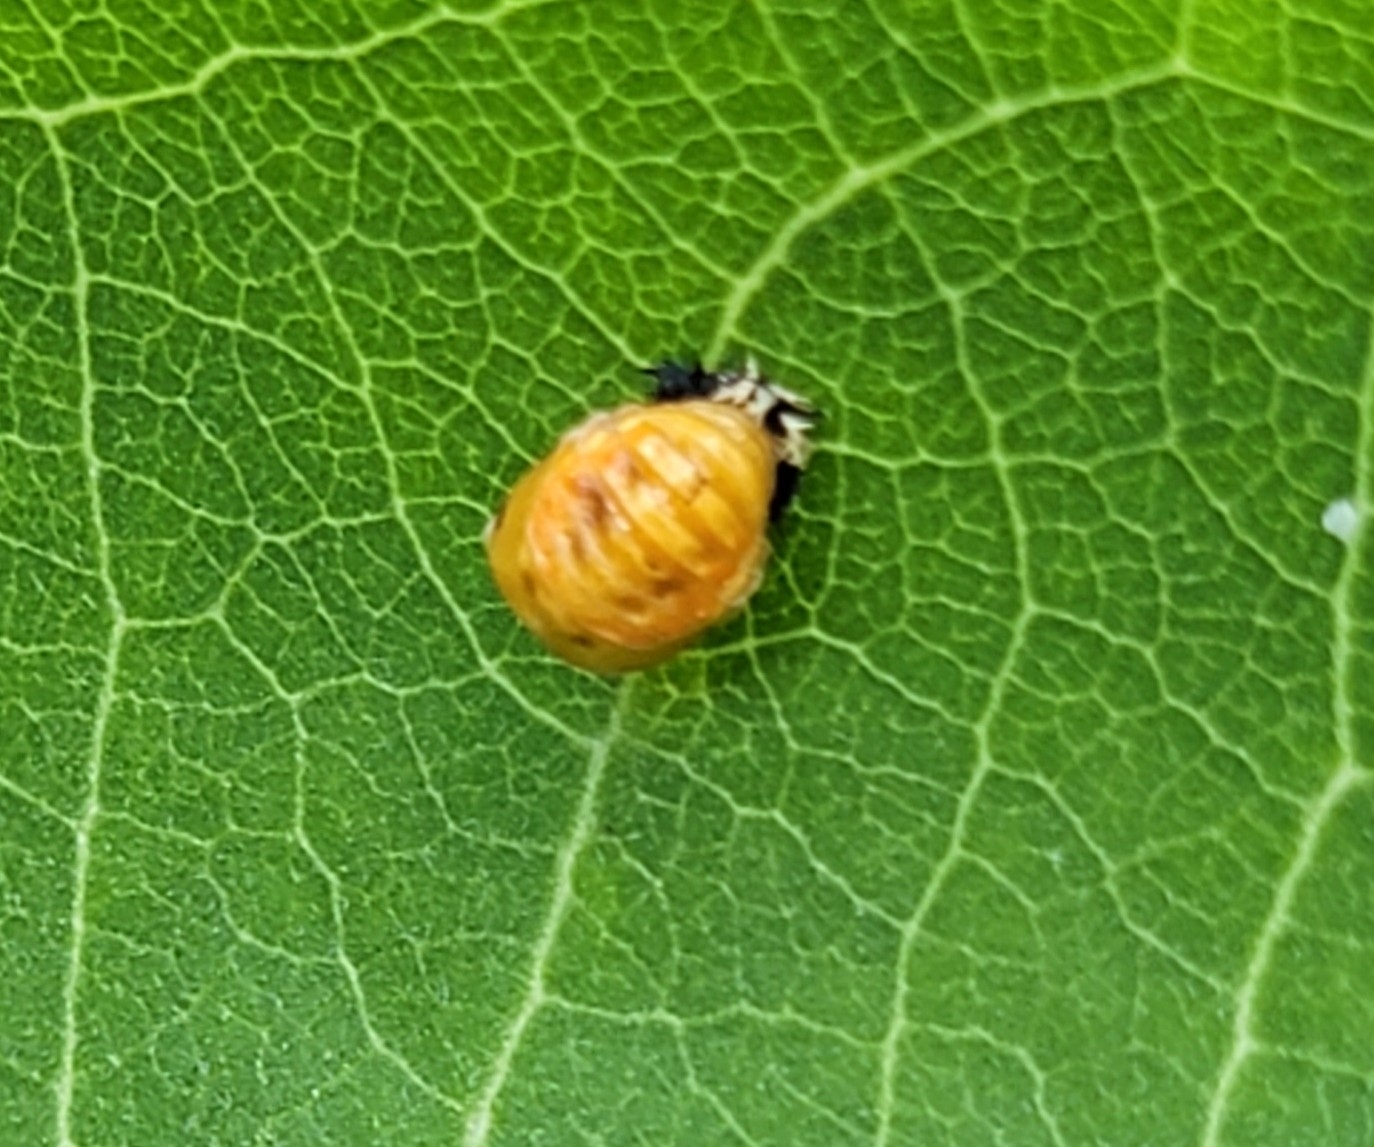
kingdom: Animalia
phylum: Arthropoda
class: Insecta
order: Coleoptera
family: Coccinellidae
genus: Harmonia
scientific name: Harmonia axyridis
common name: Harlequin ladybird
